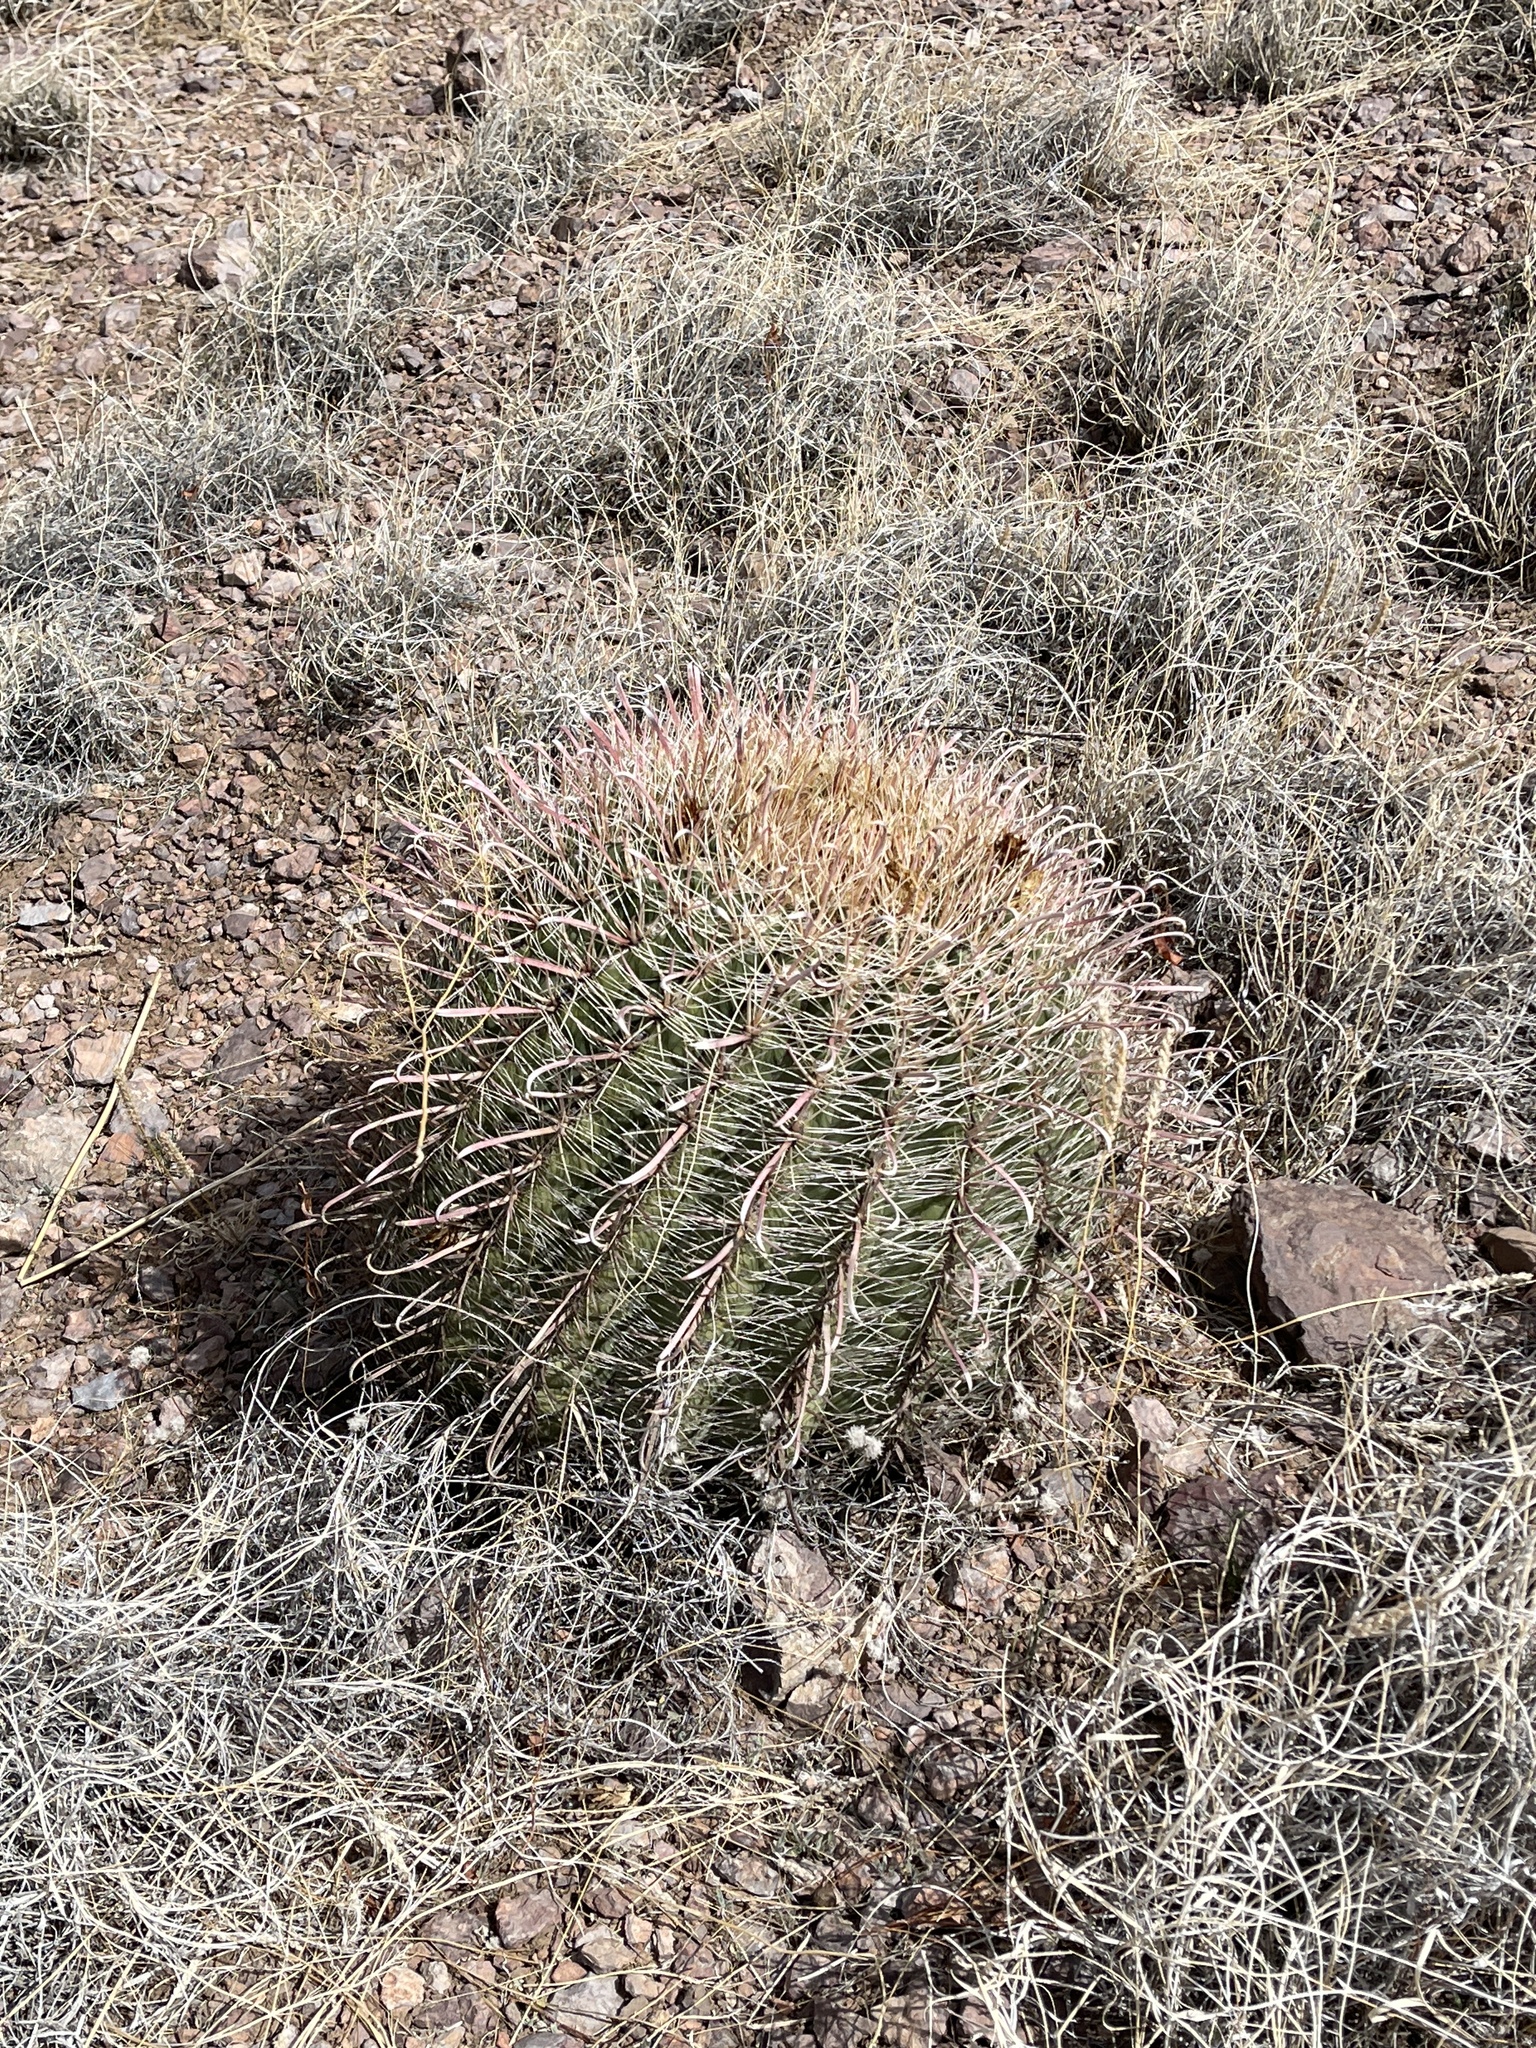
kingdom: Plantae
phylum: Tracheophyta
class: Magnoliopsida
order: Caryophyllales
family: Cactaceae
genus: Ferocactus
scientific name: Ferocactus wislizeni
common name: Candy barrel cactus
